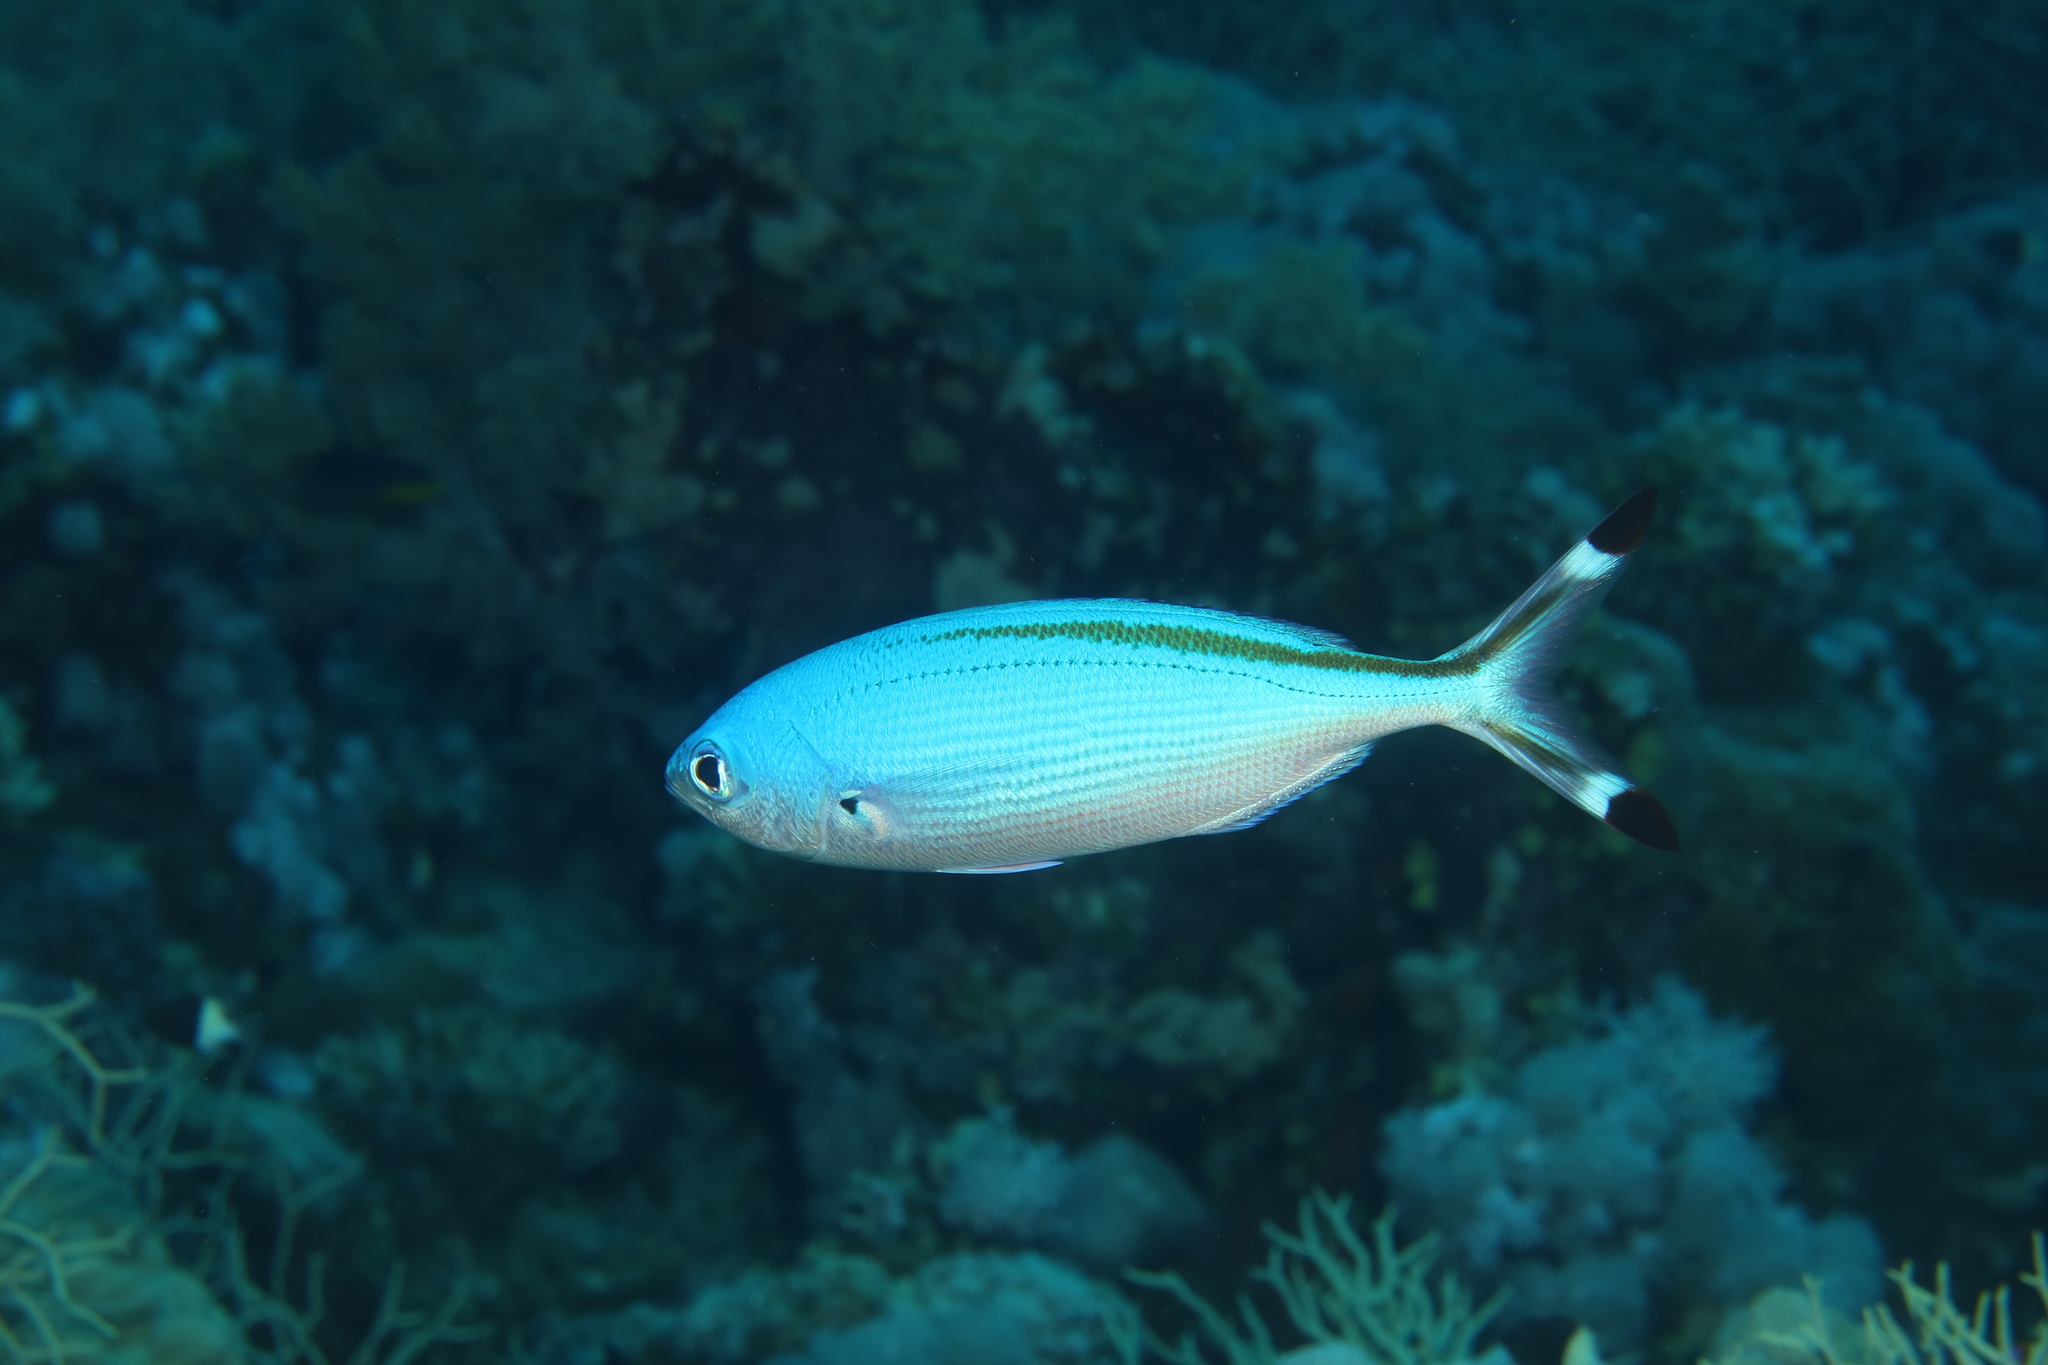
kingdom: Animalia
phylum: Chordata
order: Perciformes
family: Caesionidae
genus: Caesio
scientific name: Caesio suevica
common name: Suez fusilier
